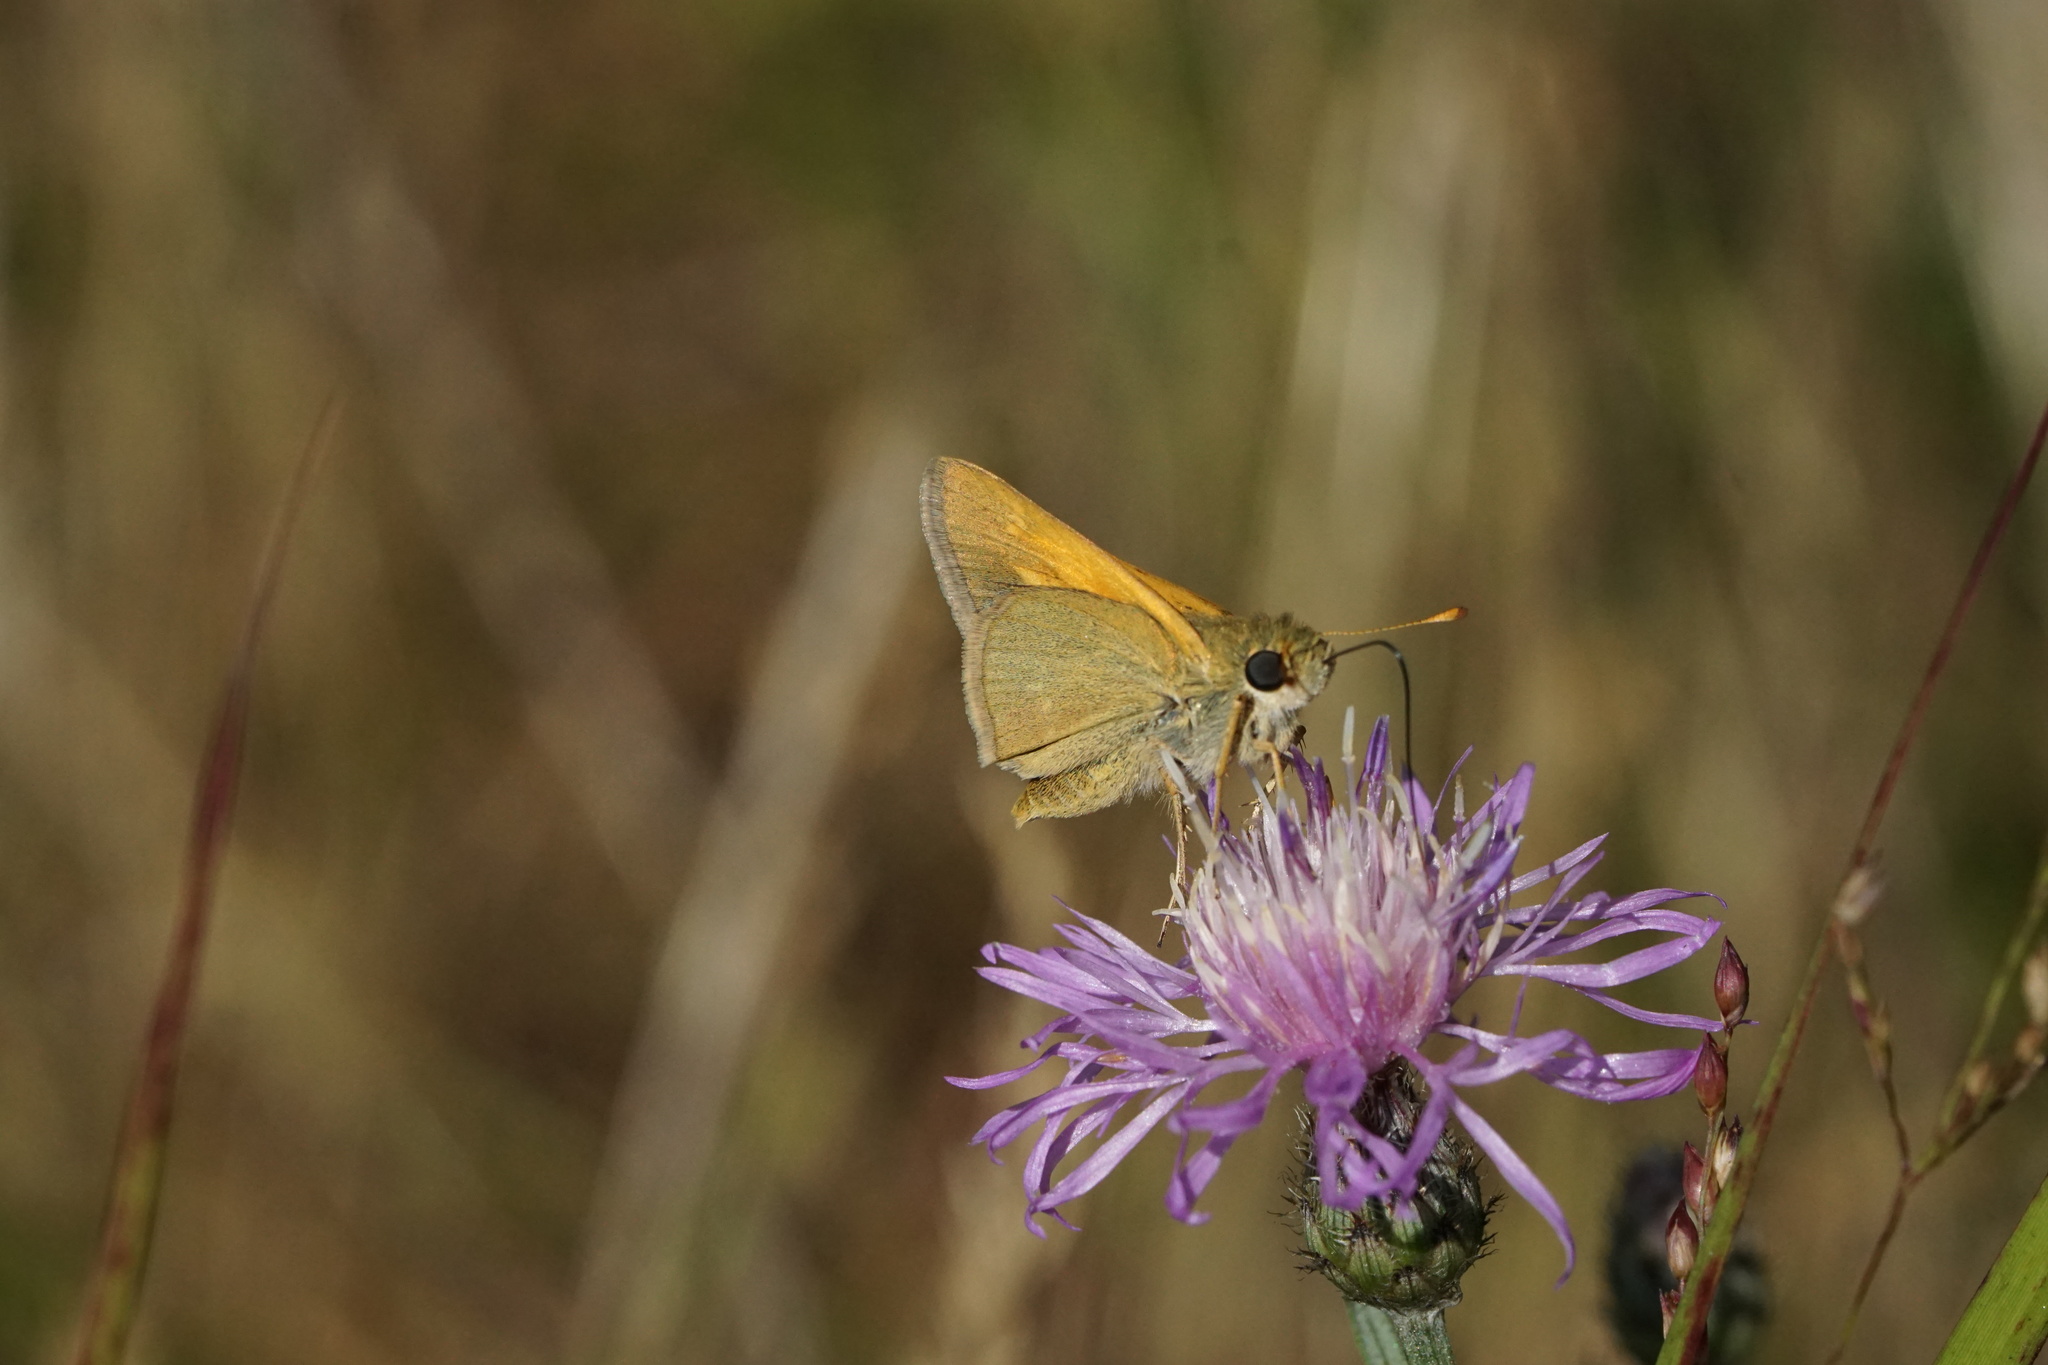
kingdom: Animalia
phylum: Arthropoda
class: Insecta
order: Lepidoptera
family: Hesperiidae
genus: Polites
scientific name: Polites themistocles
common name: Tawny-edged skipper
